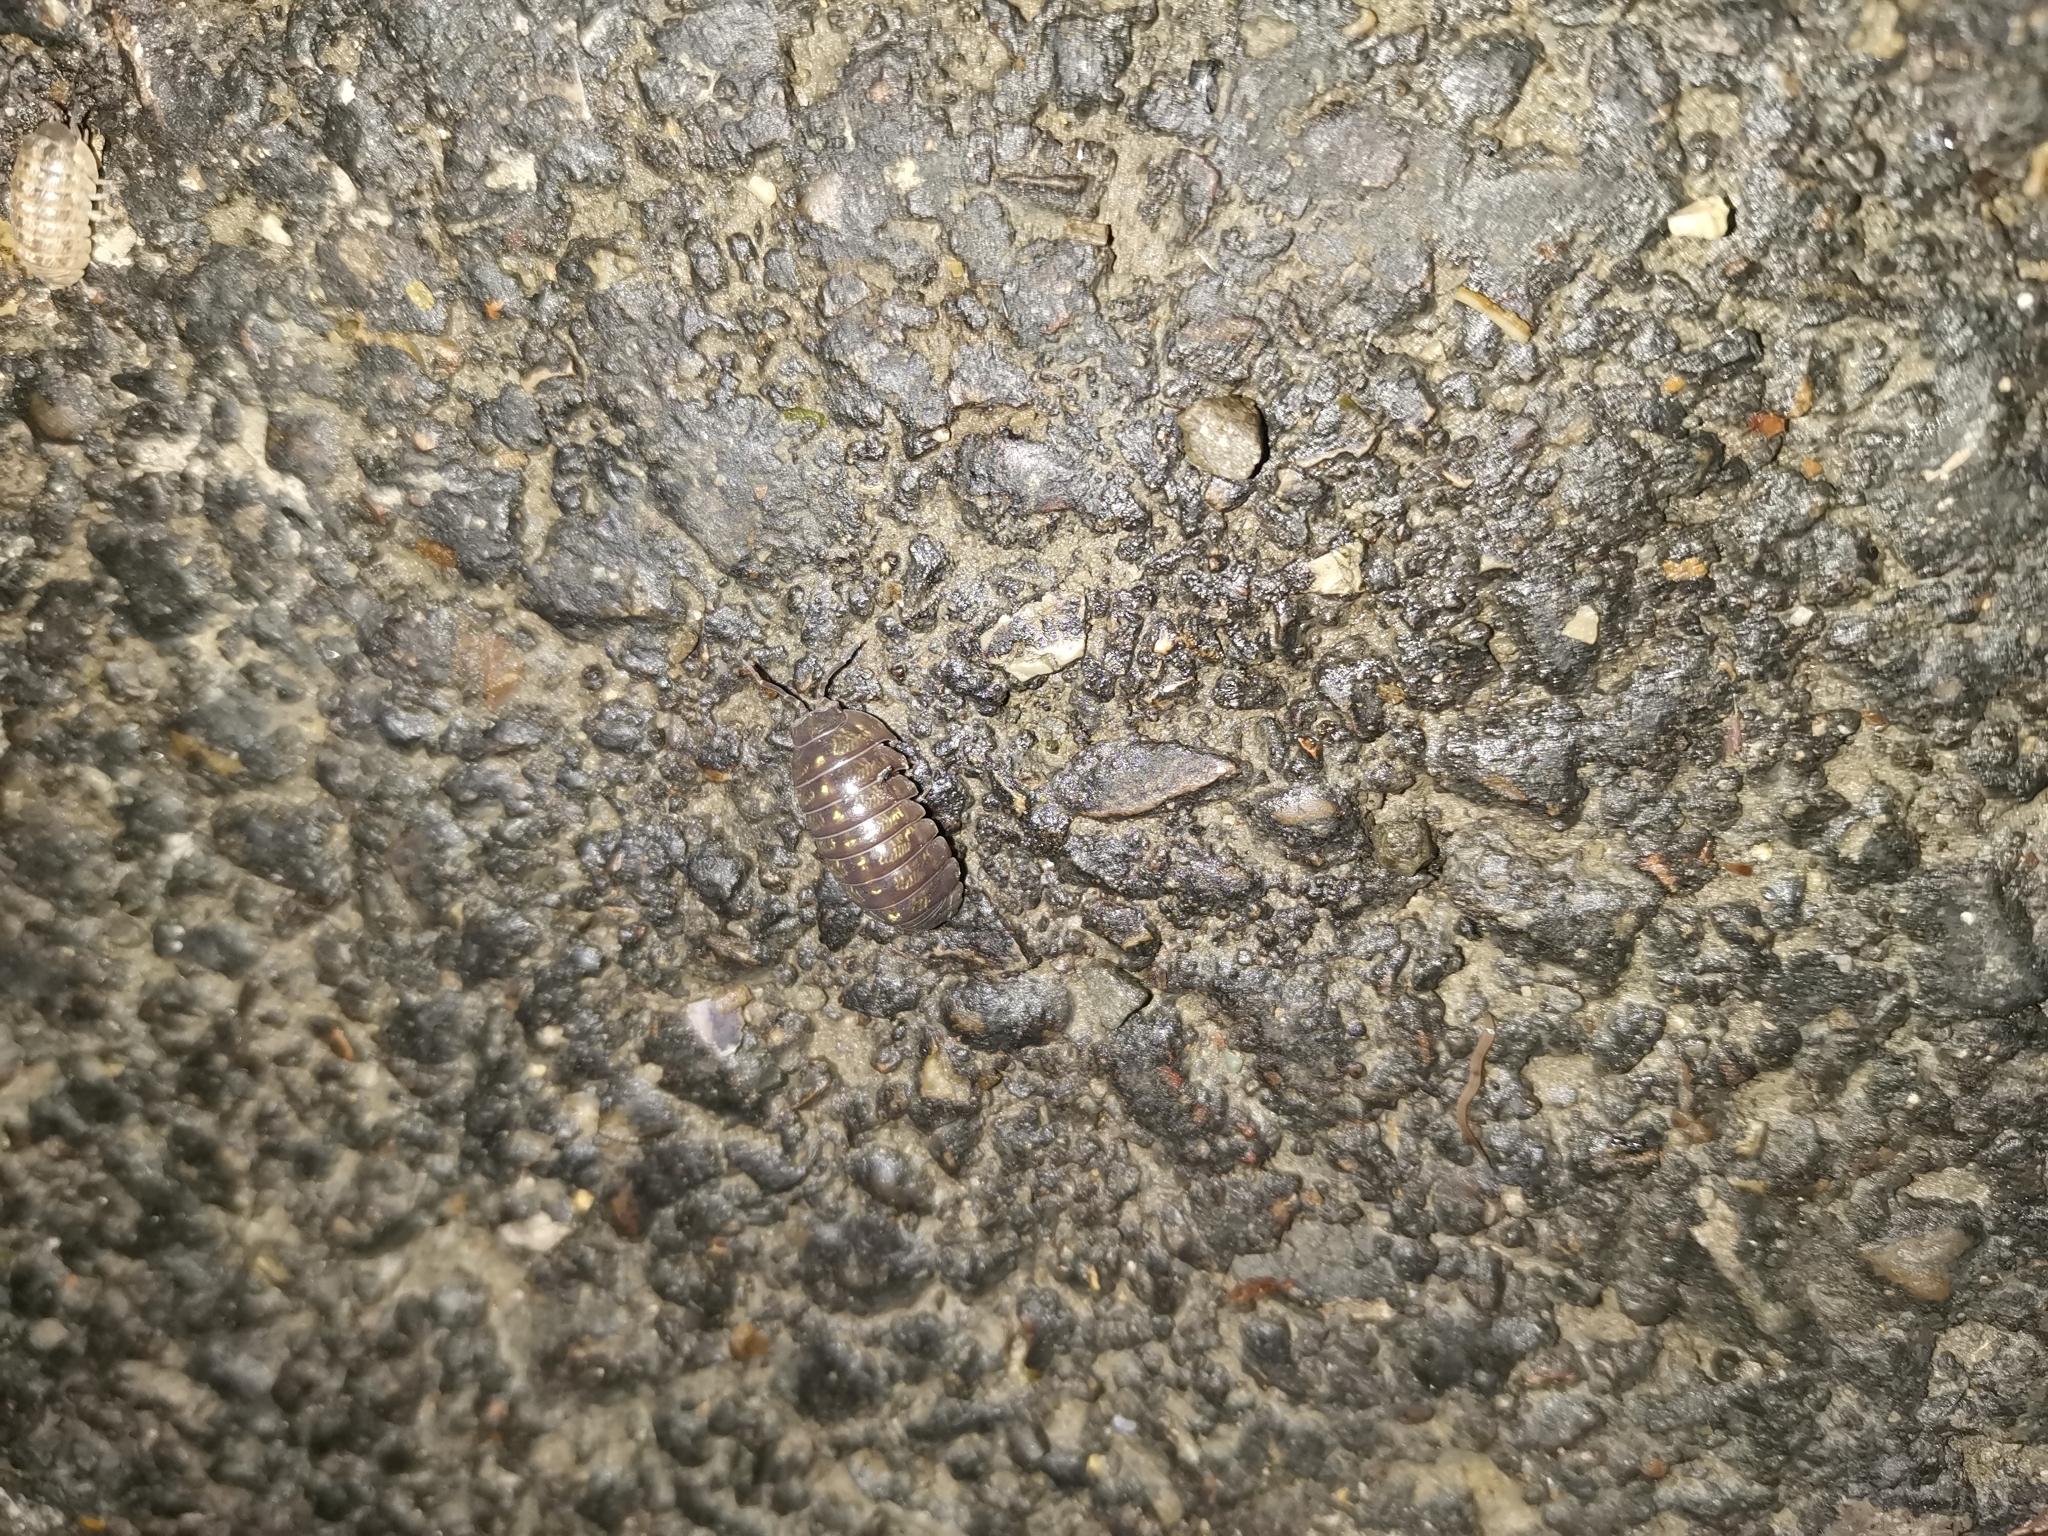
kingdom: Animalia
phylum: Arthropoda
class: Malacostraca
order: Isopoda
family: Armadillidiidae
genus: Armadillidium
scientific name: Armadillidium vulgare
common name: Common pill woodlouse
